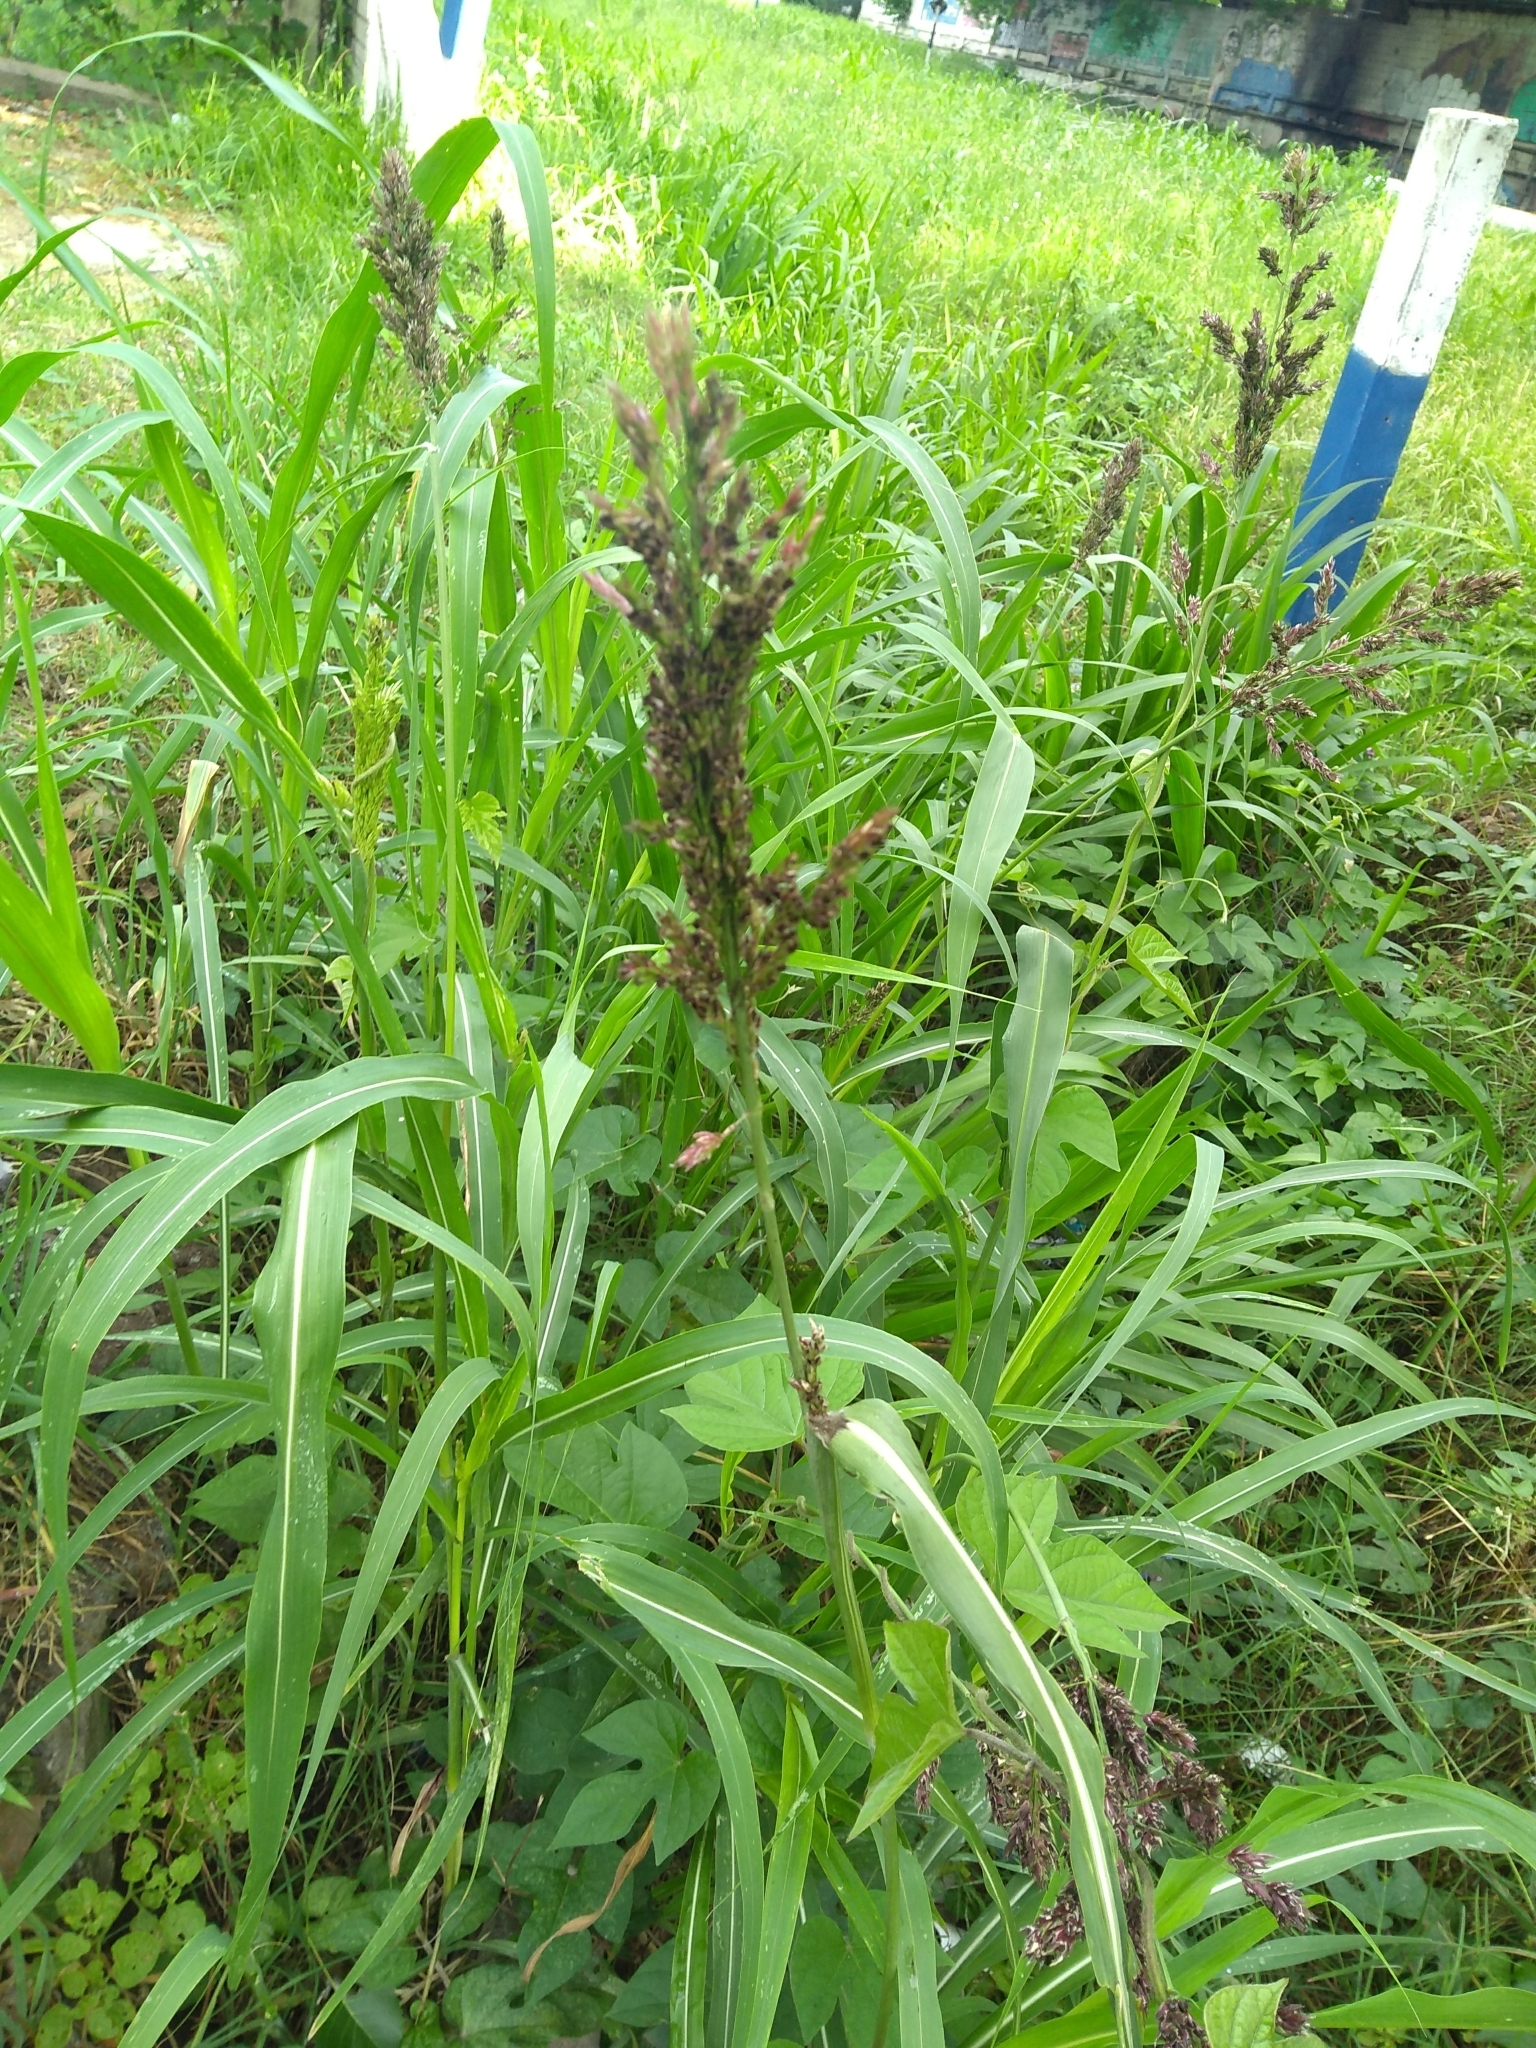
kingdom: Plantae
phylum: Tracheophyta
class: Liliopsida
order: Poales
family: Poaceae
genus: Echinochloa
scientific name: Echinochloa crus-galli
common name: Cockspur
